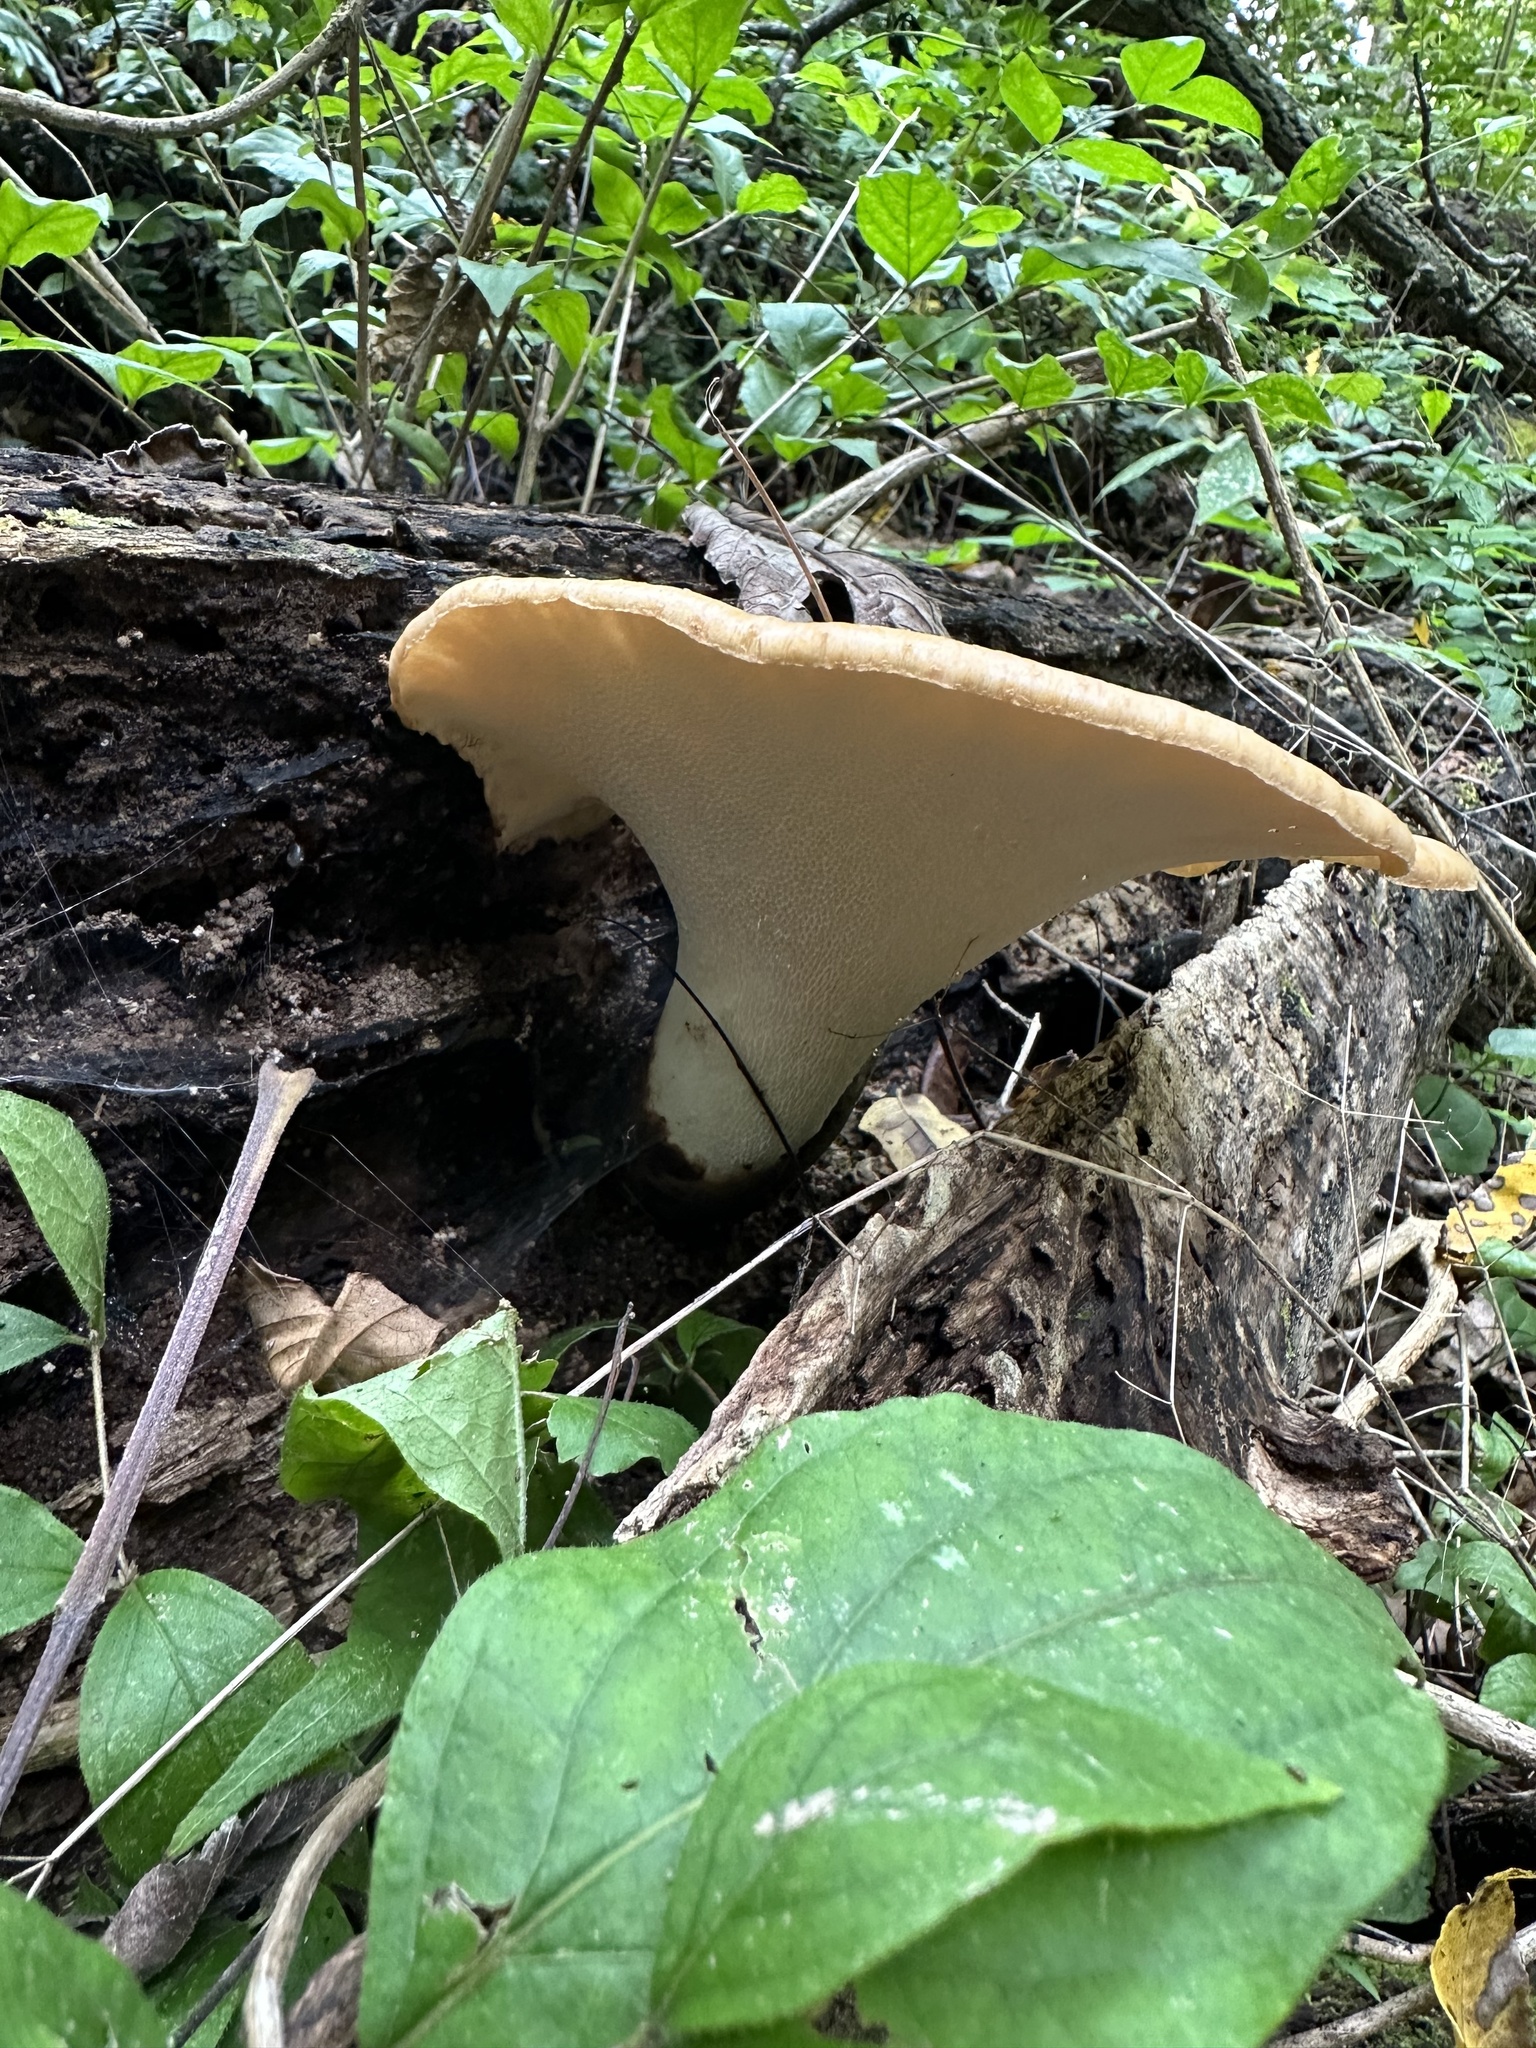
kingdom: Fungi
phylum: Basidiomycota
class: Agaricomycetes
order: Polyporales
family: Polyporaceae
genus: Cerioporus
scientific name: Cerioporus squamosus
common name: Dryad's saddle
